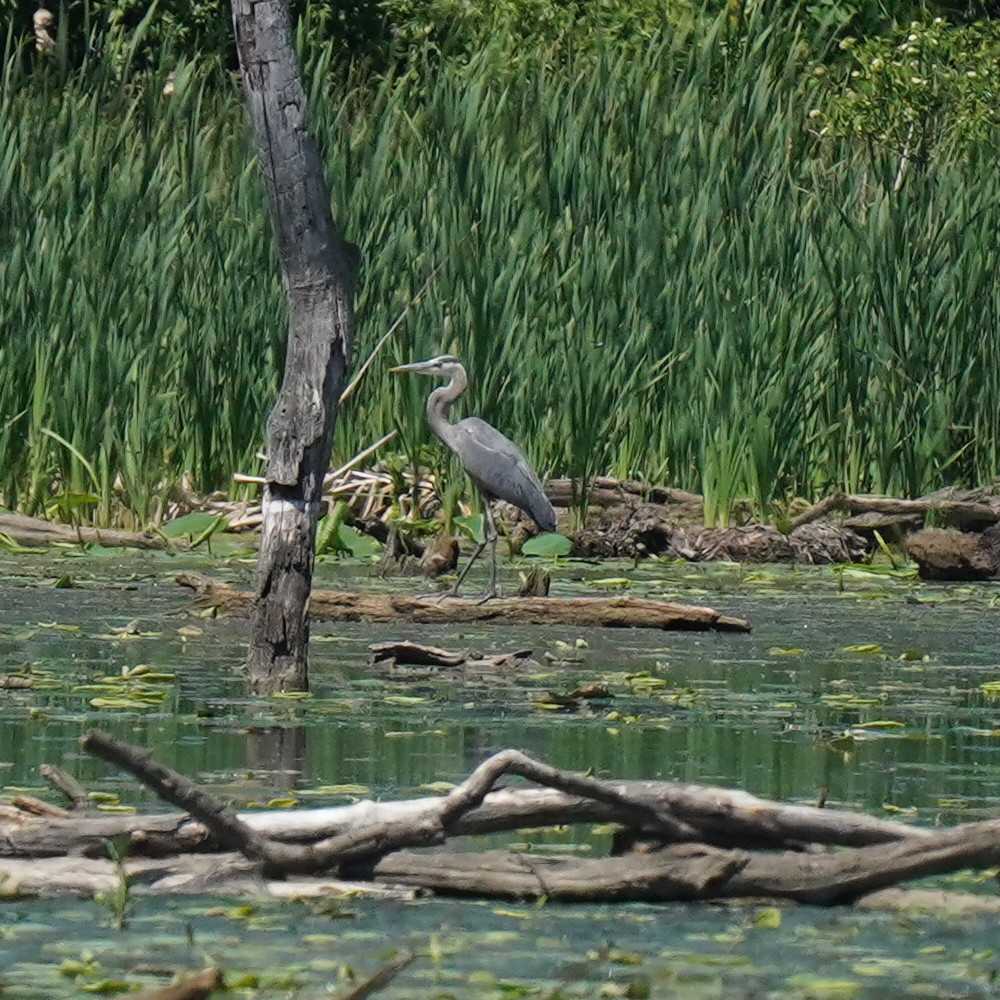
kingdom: Animalia
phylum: Chordata
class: Aves
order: Pelecaniformes
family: Ardeidae
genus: Ardea
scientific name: Ardea herodias
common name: Great blue heron
